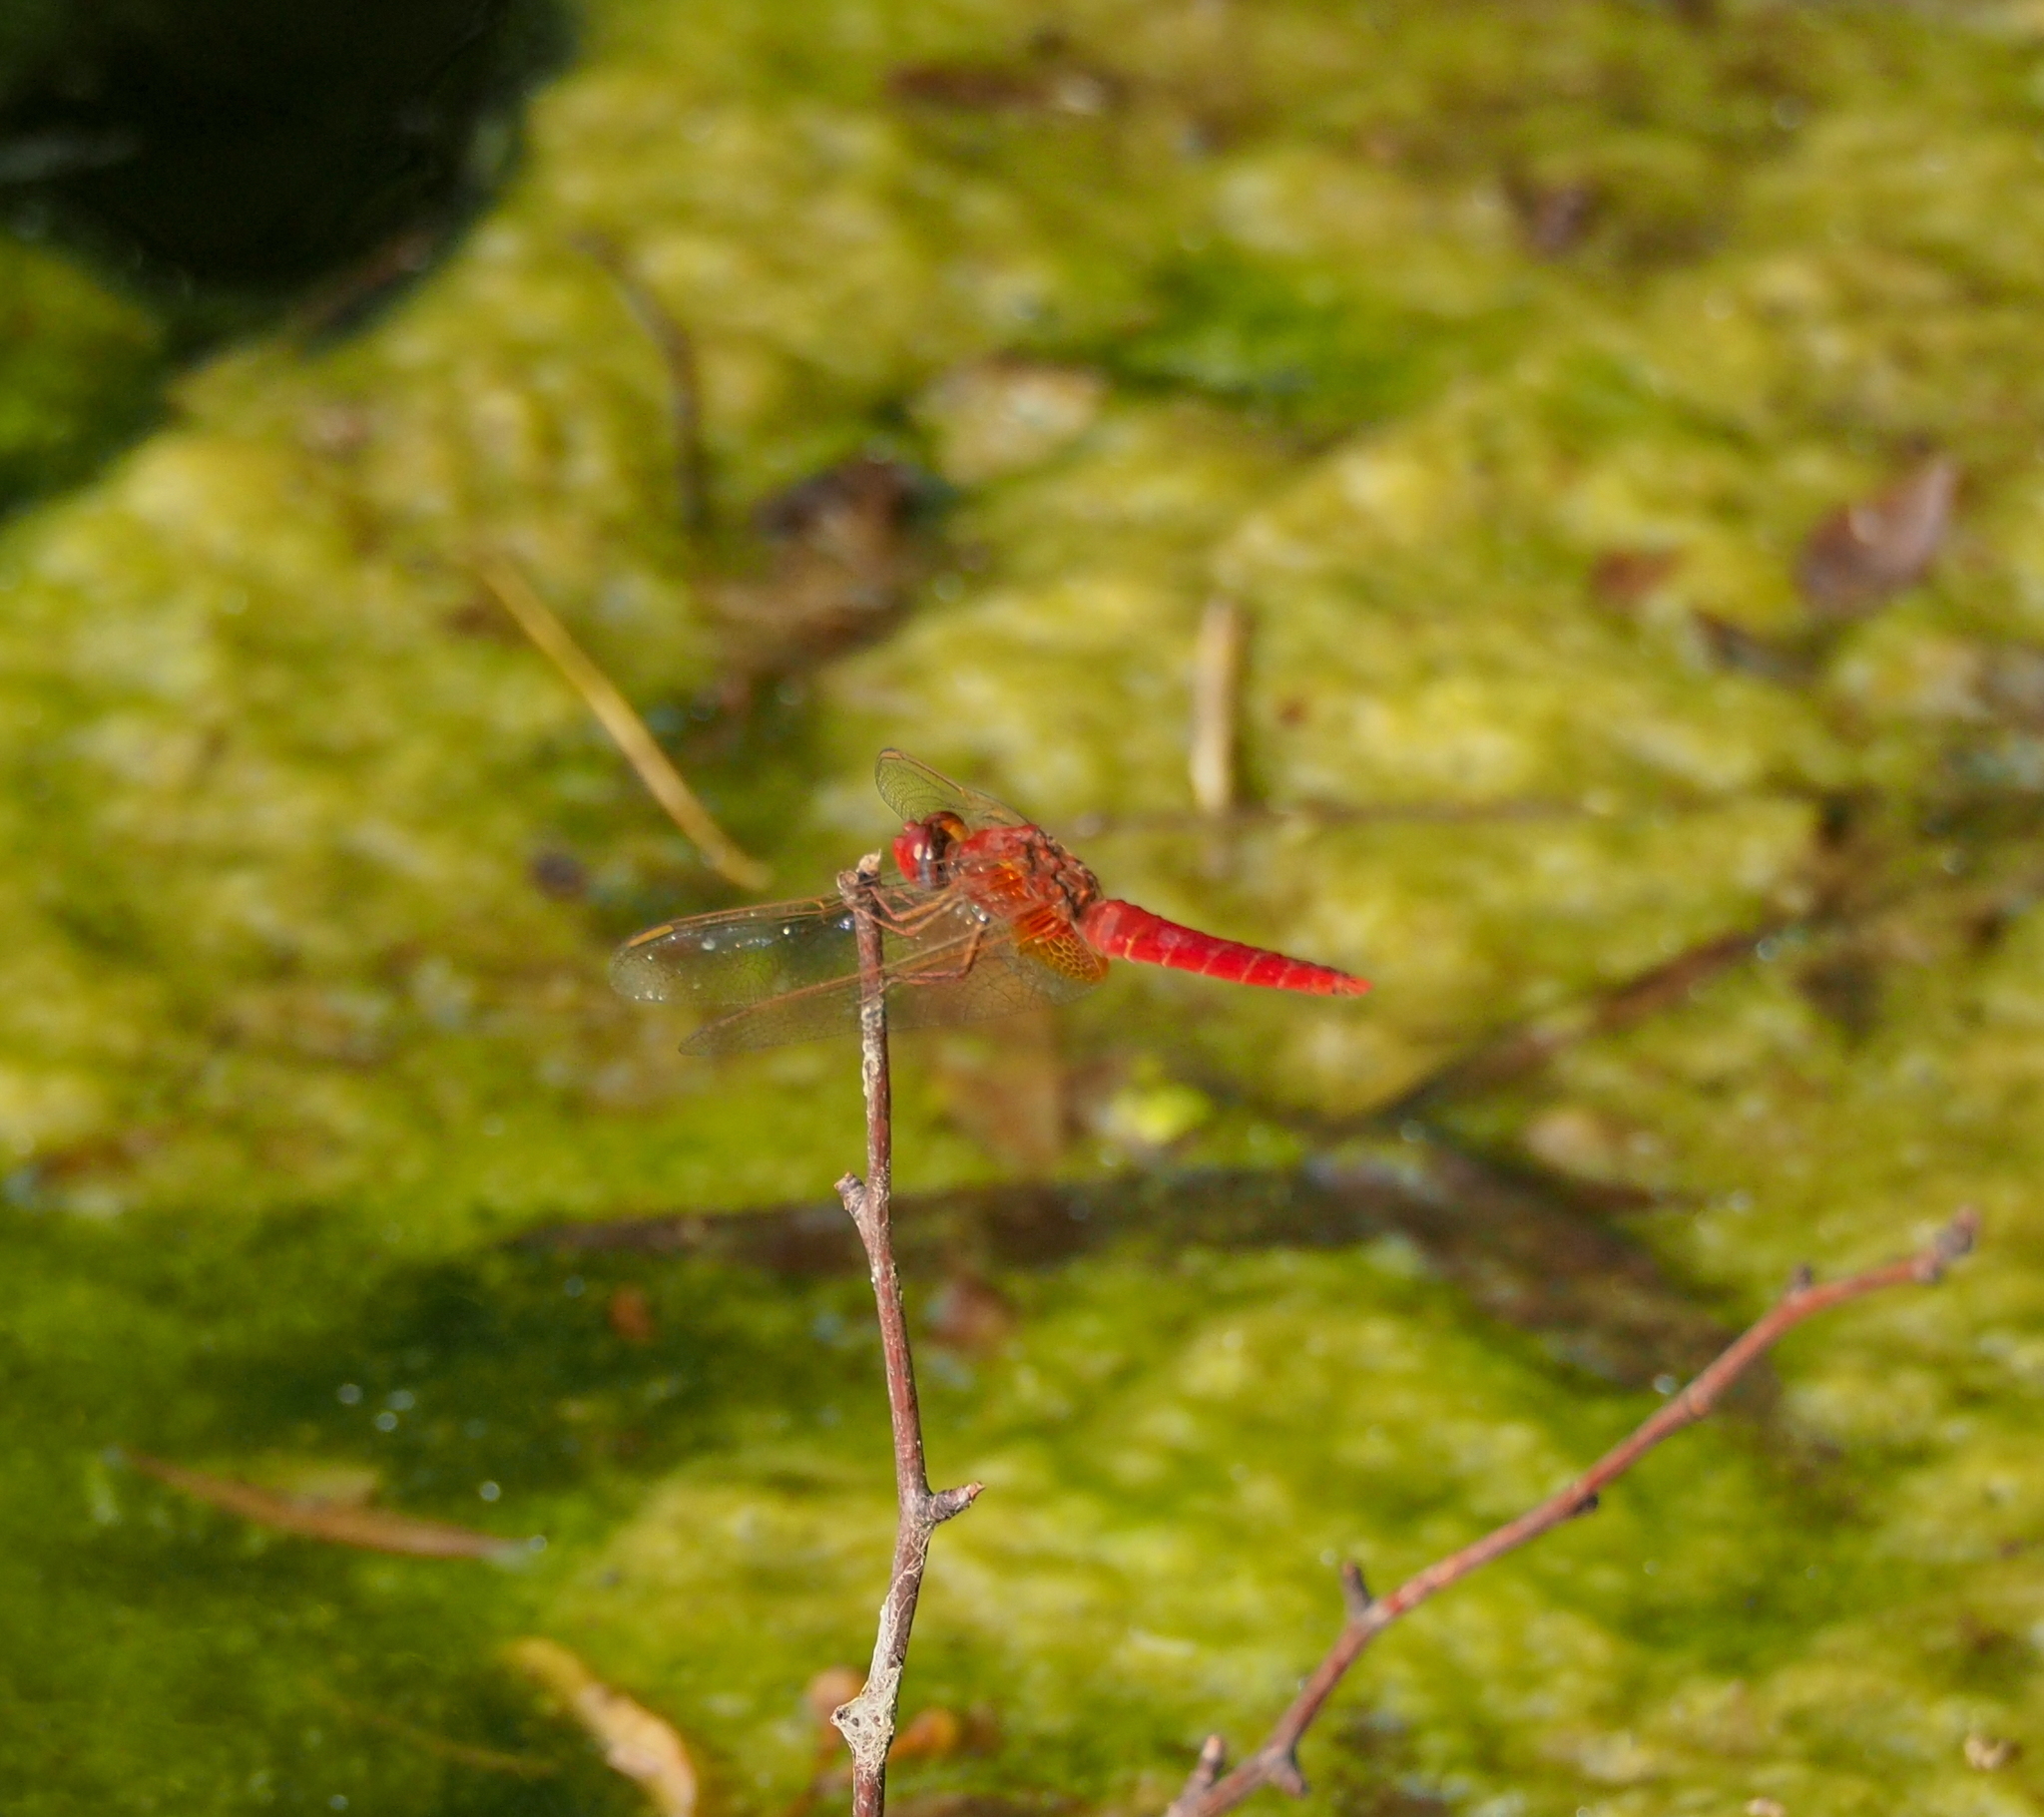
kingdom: Animalia
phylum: Arthropoda
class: Insecta
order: Odonata
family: Libellulidae
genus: Crocothemis
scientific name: Crocothemis erythraea
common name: Scarlet dragonfly
